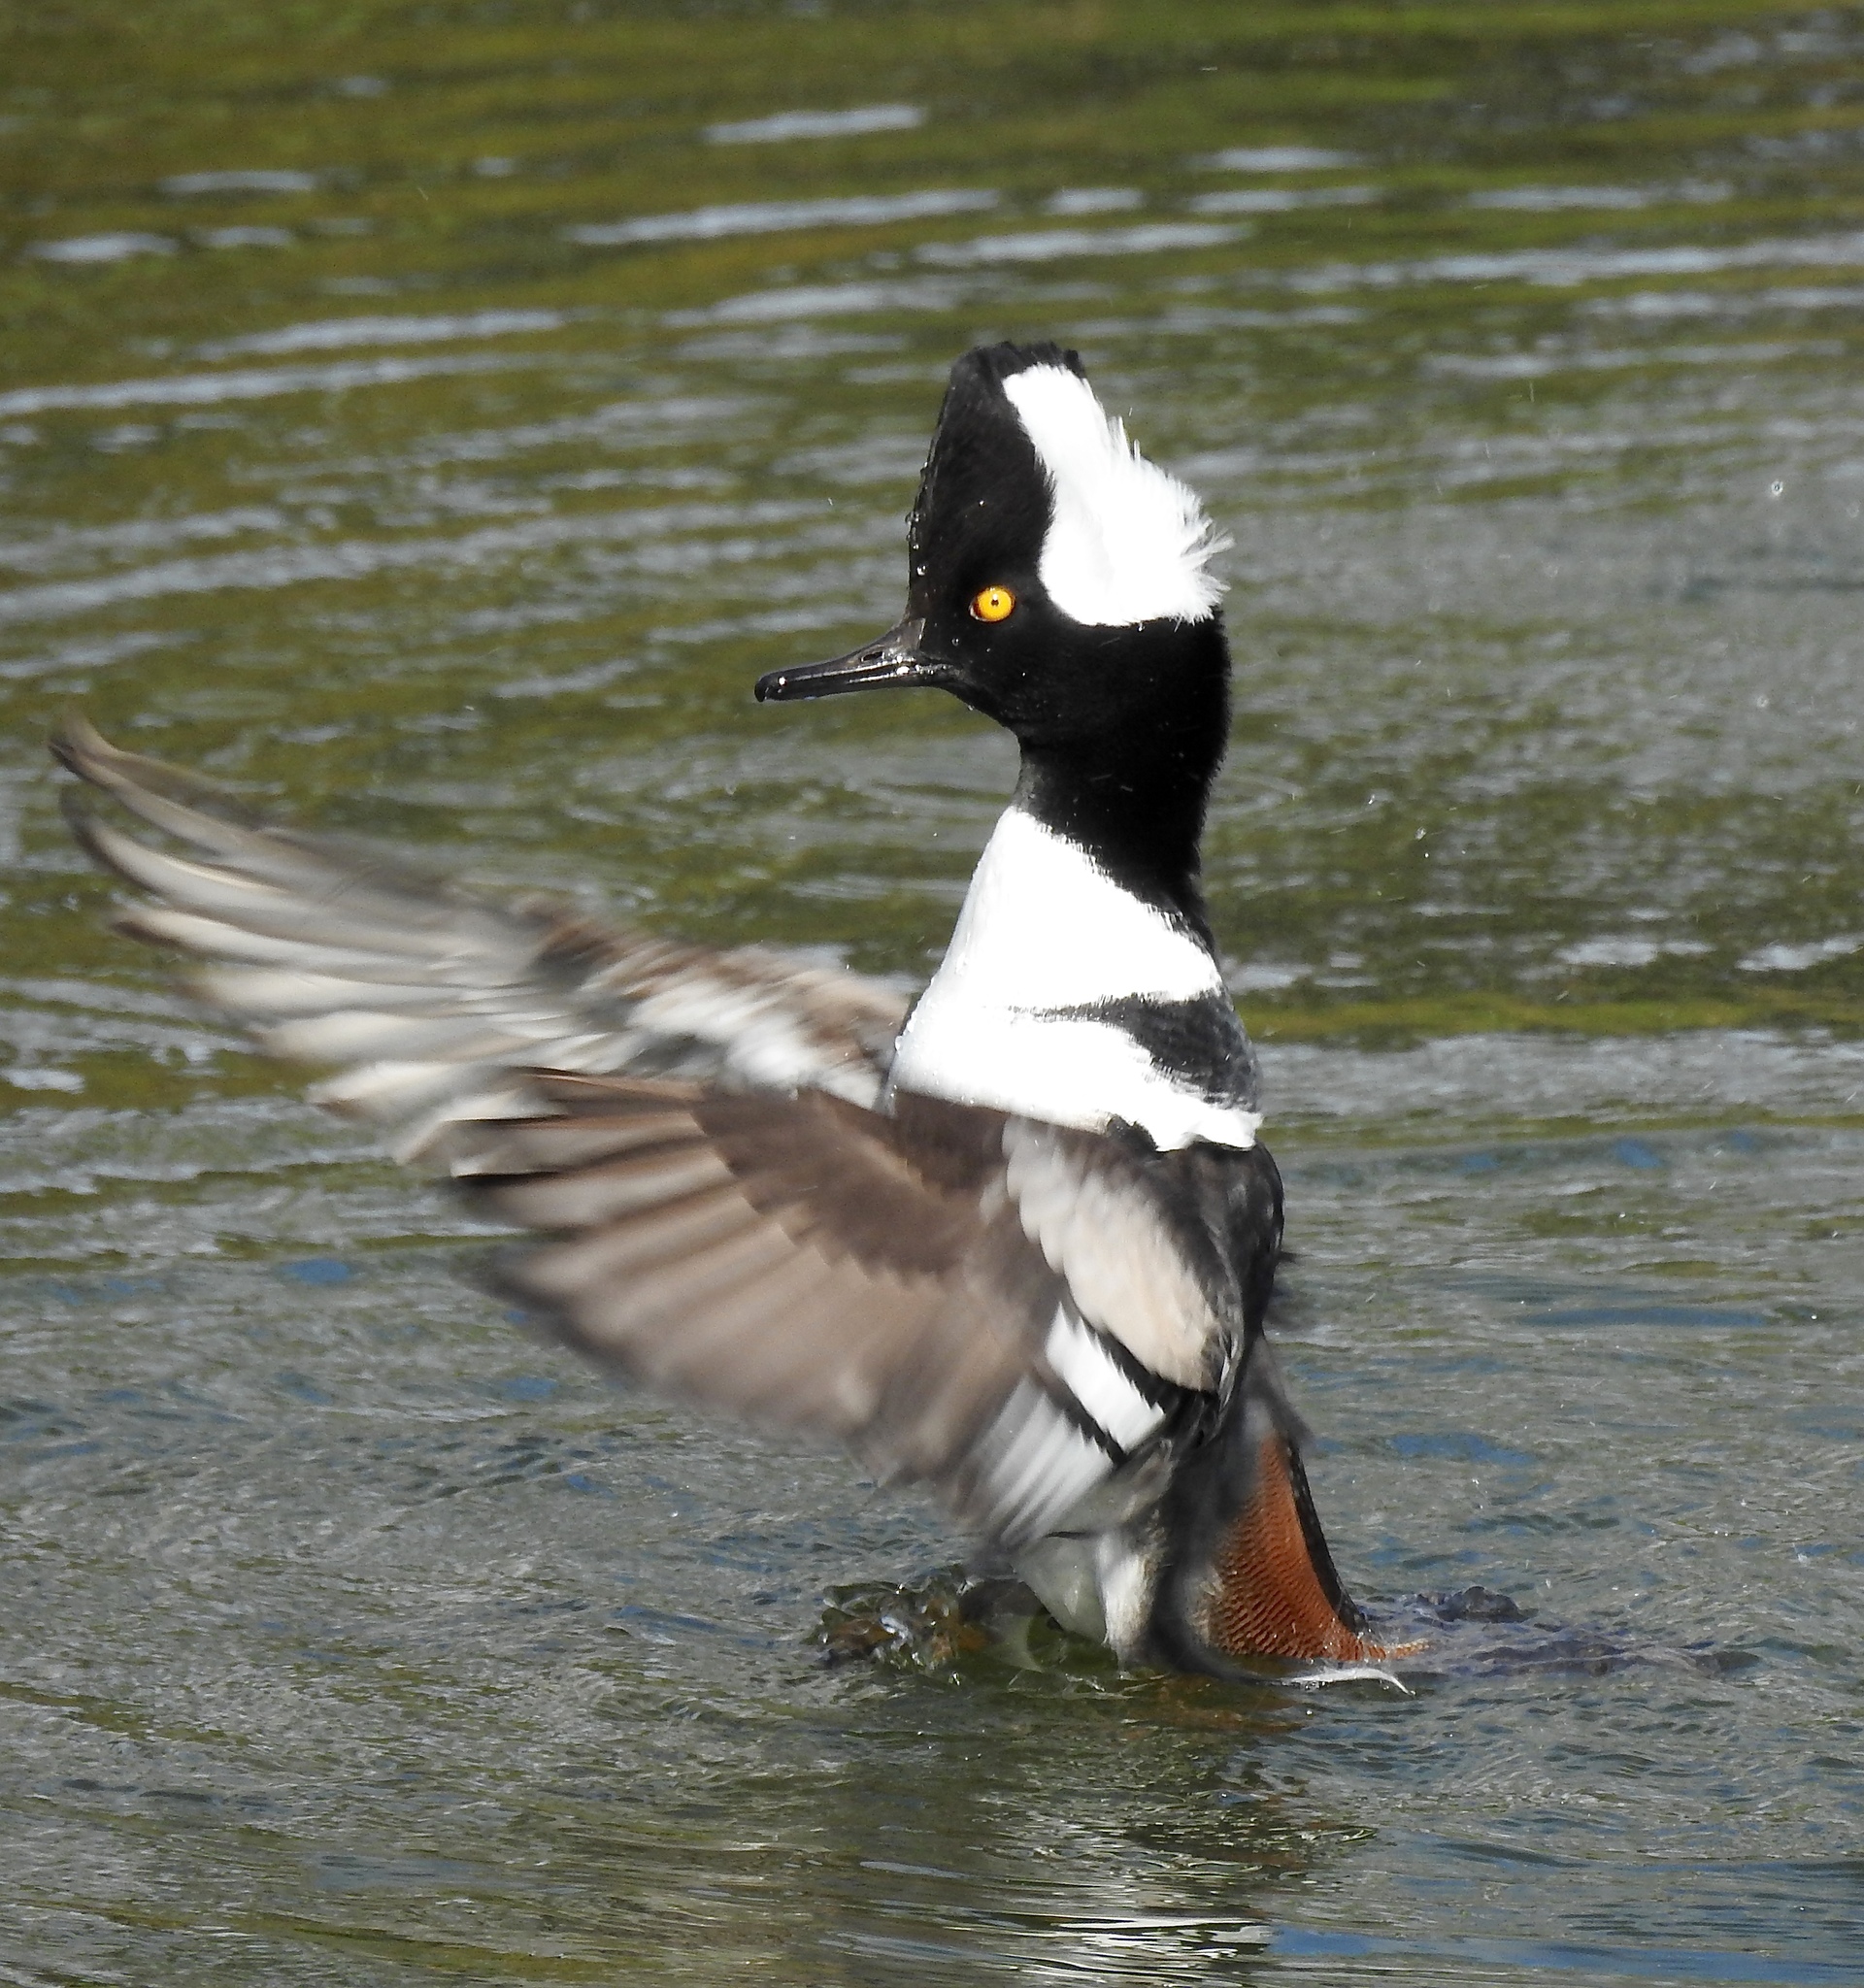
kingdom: Animalia
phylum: Chordata
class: Aves
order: Anseriformes
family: Anatidae
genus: Lophodytes
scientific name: Lophodytes cucullatus
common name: Hooded merganser
